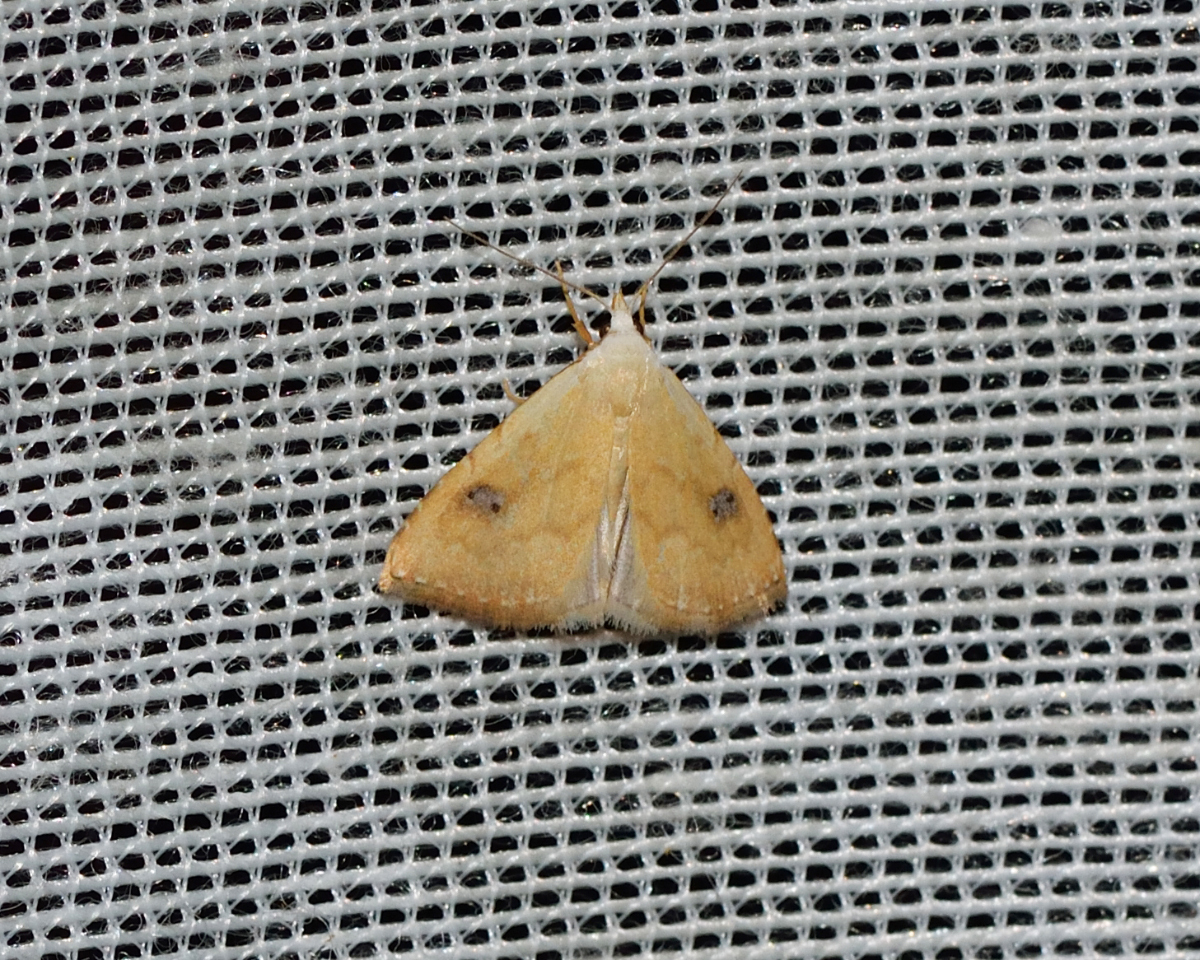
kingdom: Animalia
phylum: Arthropoda
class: Insecta
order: Lepidoptera
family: Erebidae
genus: Rivula
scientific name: Rivula sericealis
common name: Straw dot
